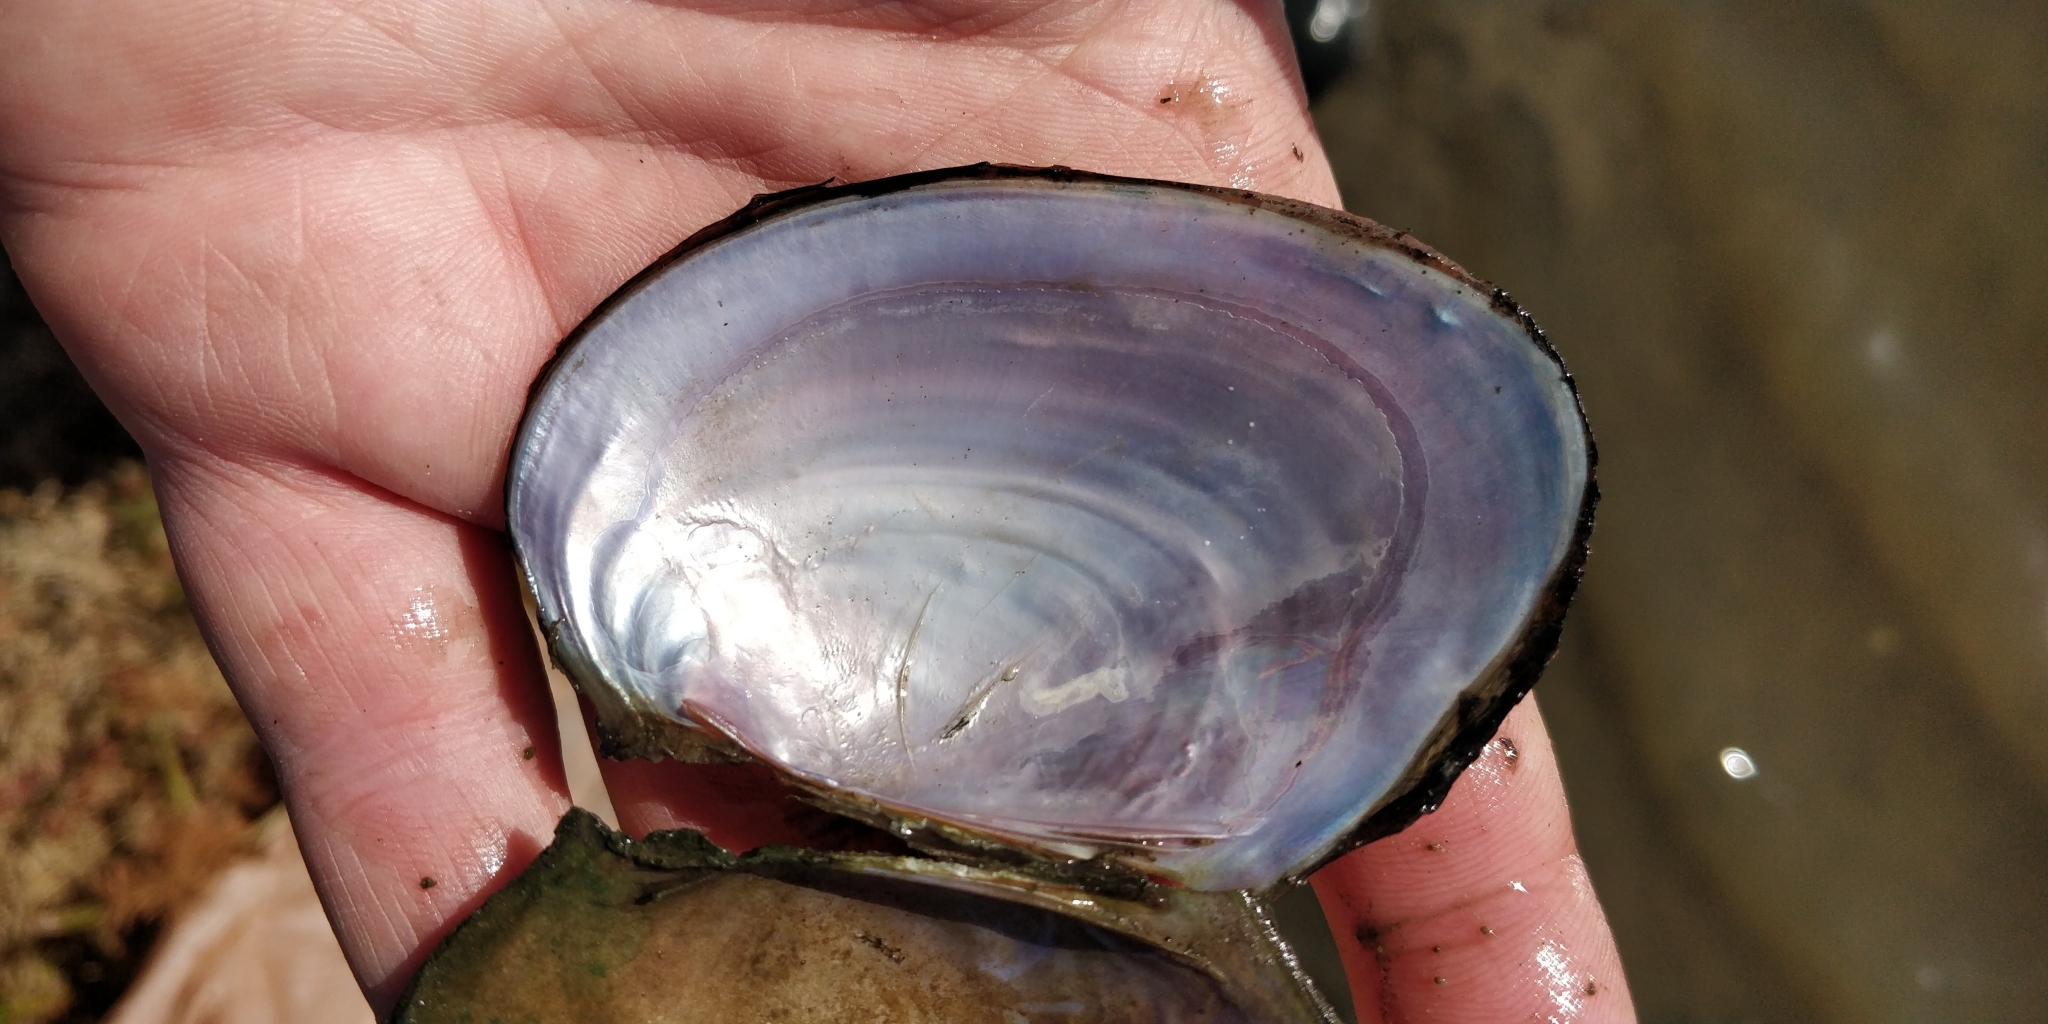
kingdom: Animalia
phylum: Mollusca
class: Bivalvia
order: Unionida
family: Unionidae
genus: Potamilus
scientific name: Potamilus ohiensis
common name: Pink papershell
